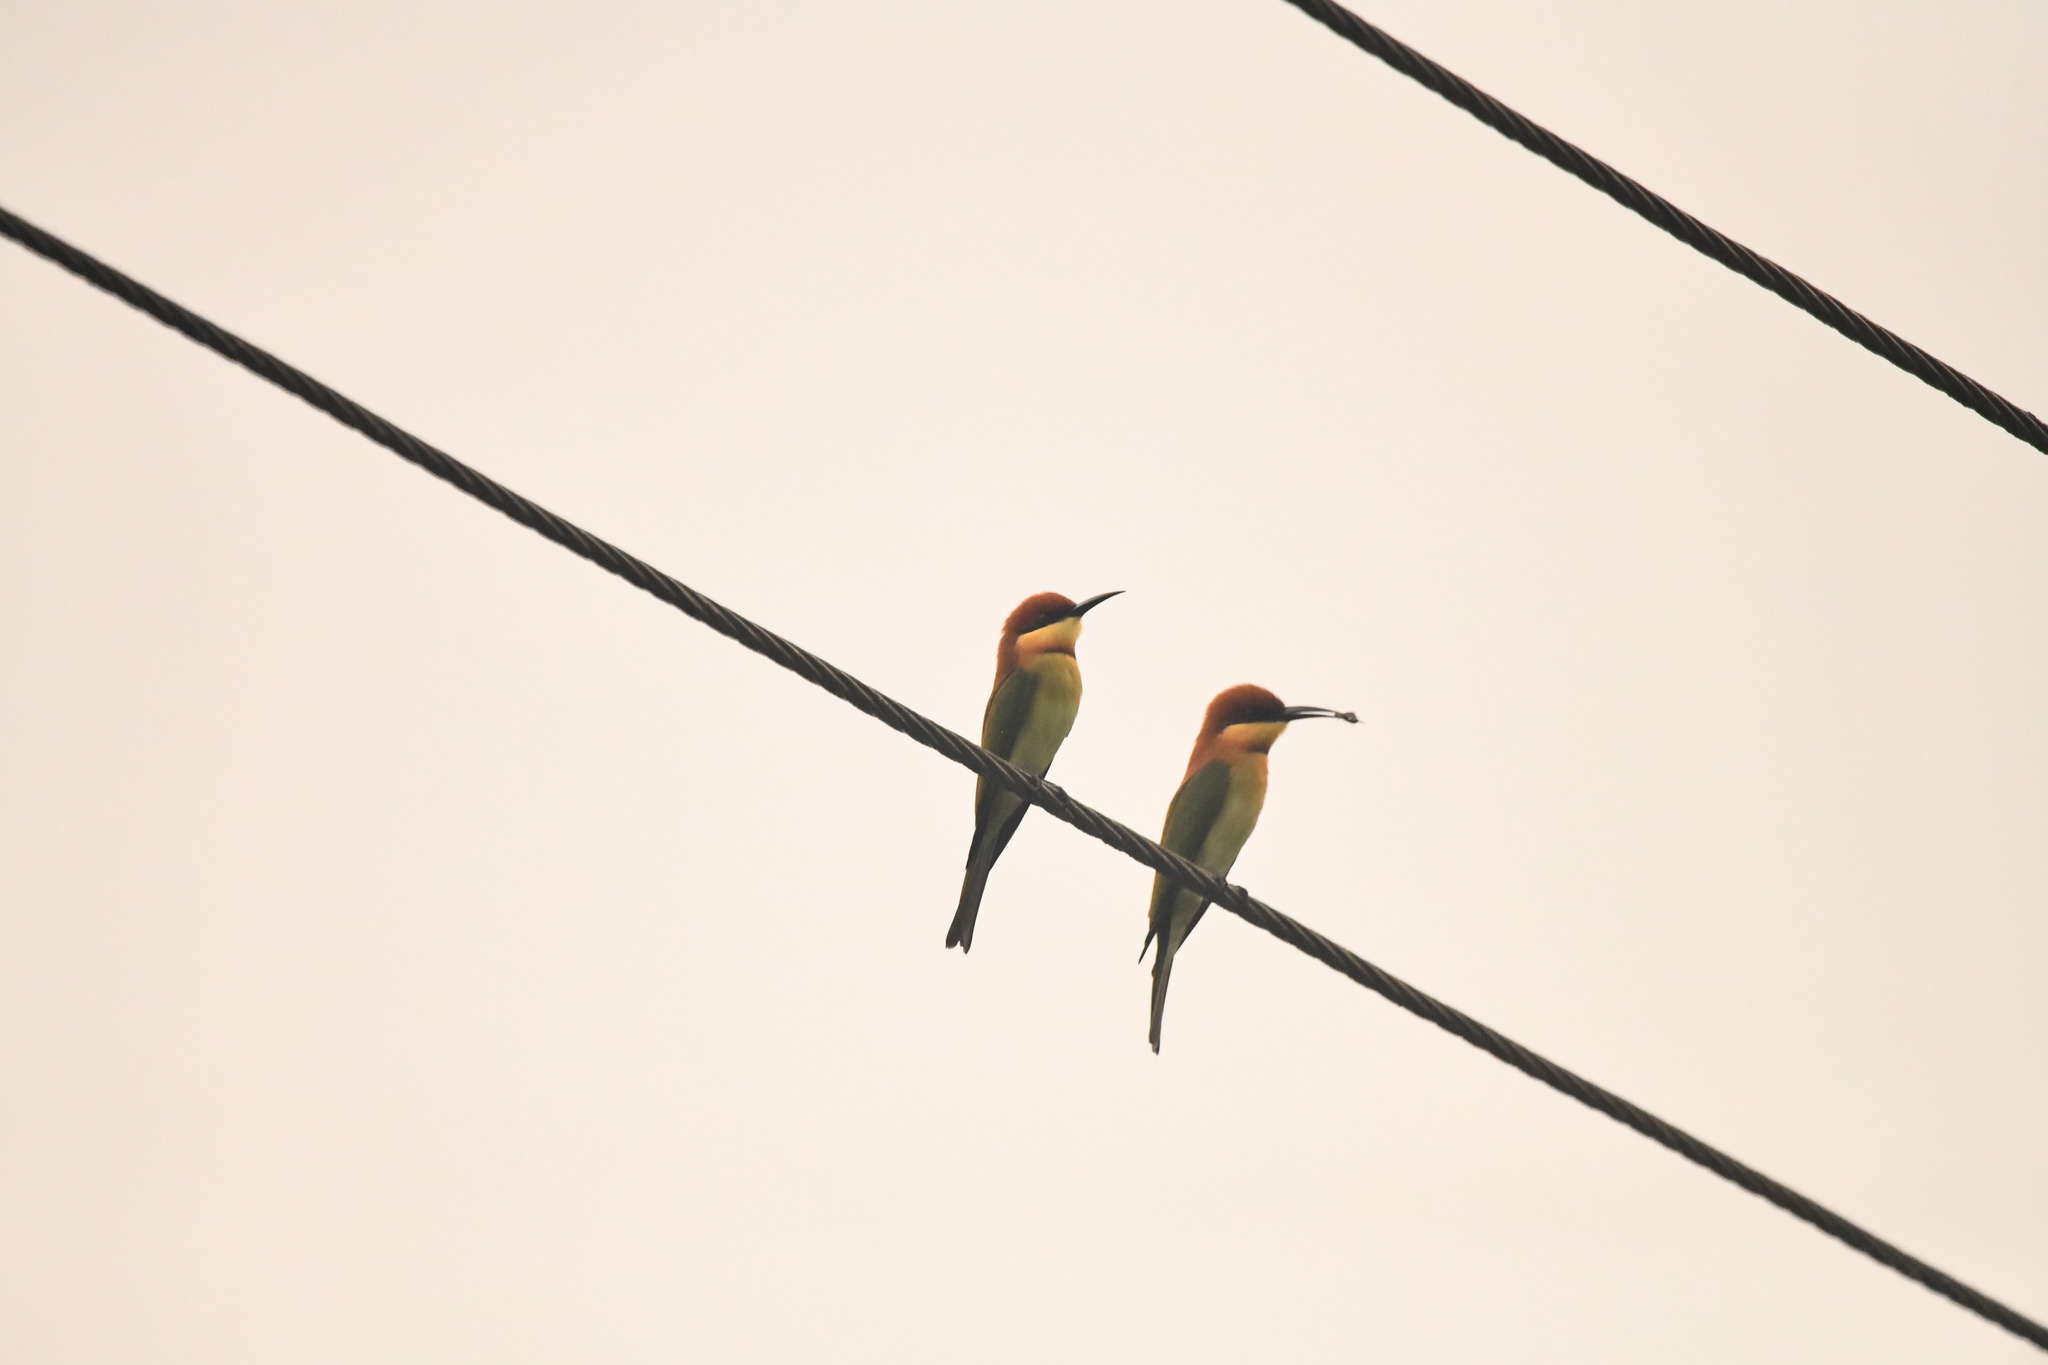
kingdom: Animalia
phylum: Chordata
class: Aves
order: Coraciiformes
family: Meropidae
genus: Merops
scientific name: Merops leschenaulti
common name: Chestnut-headed bee-eater
